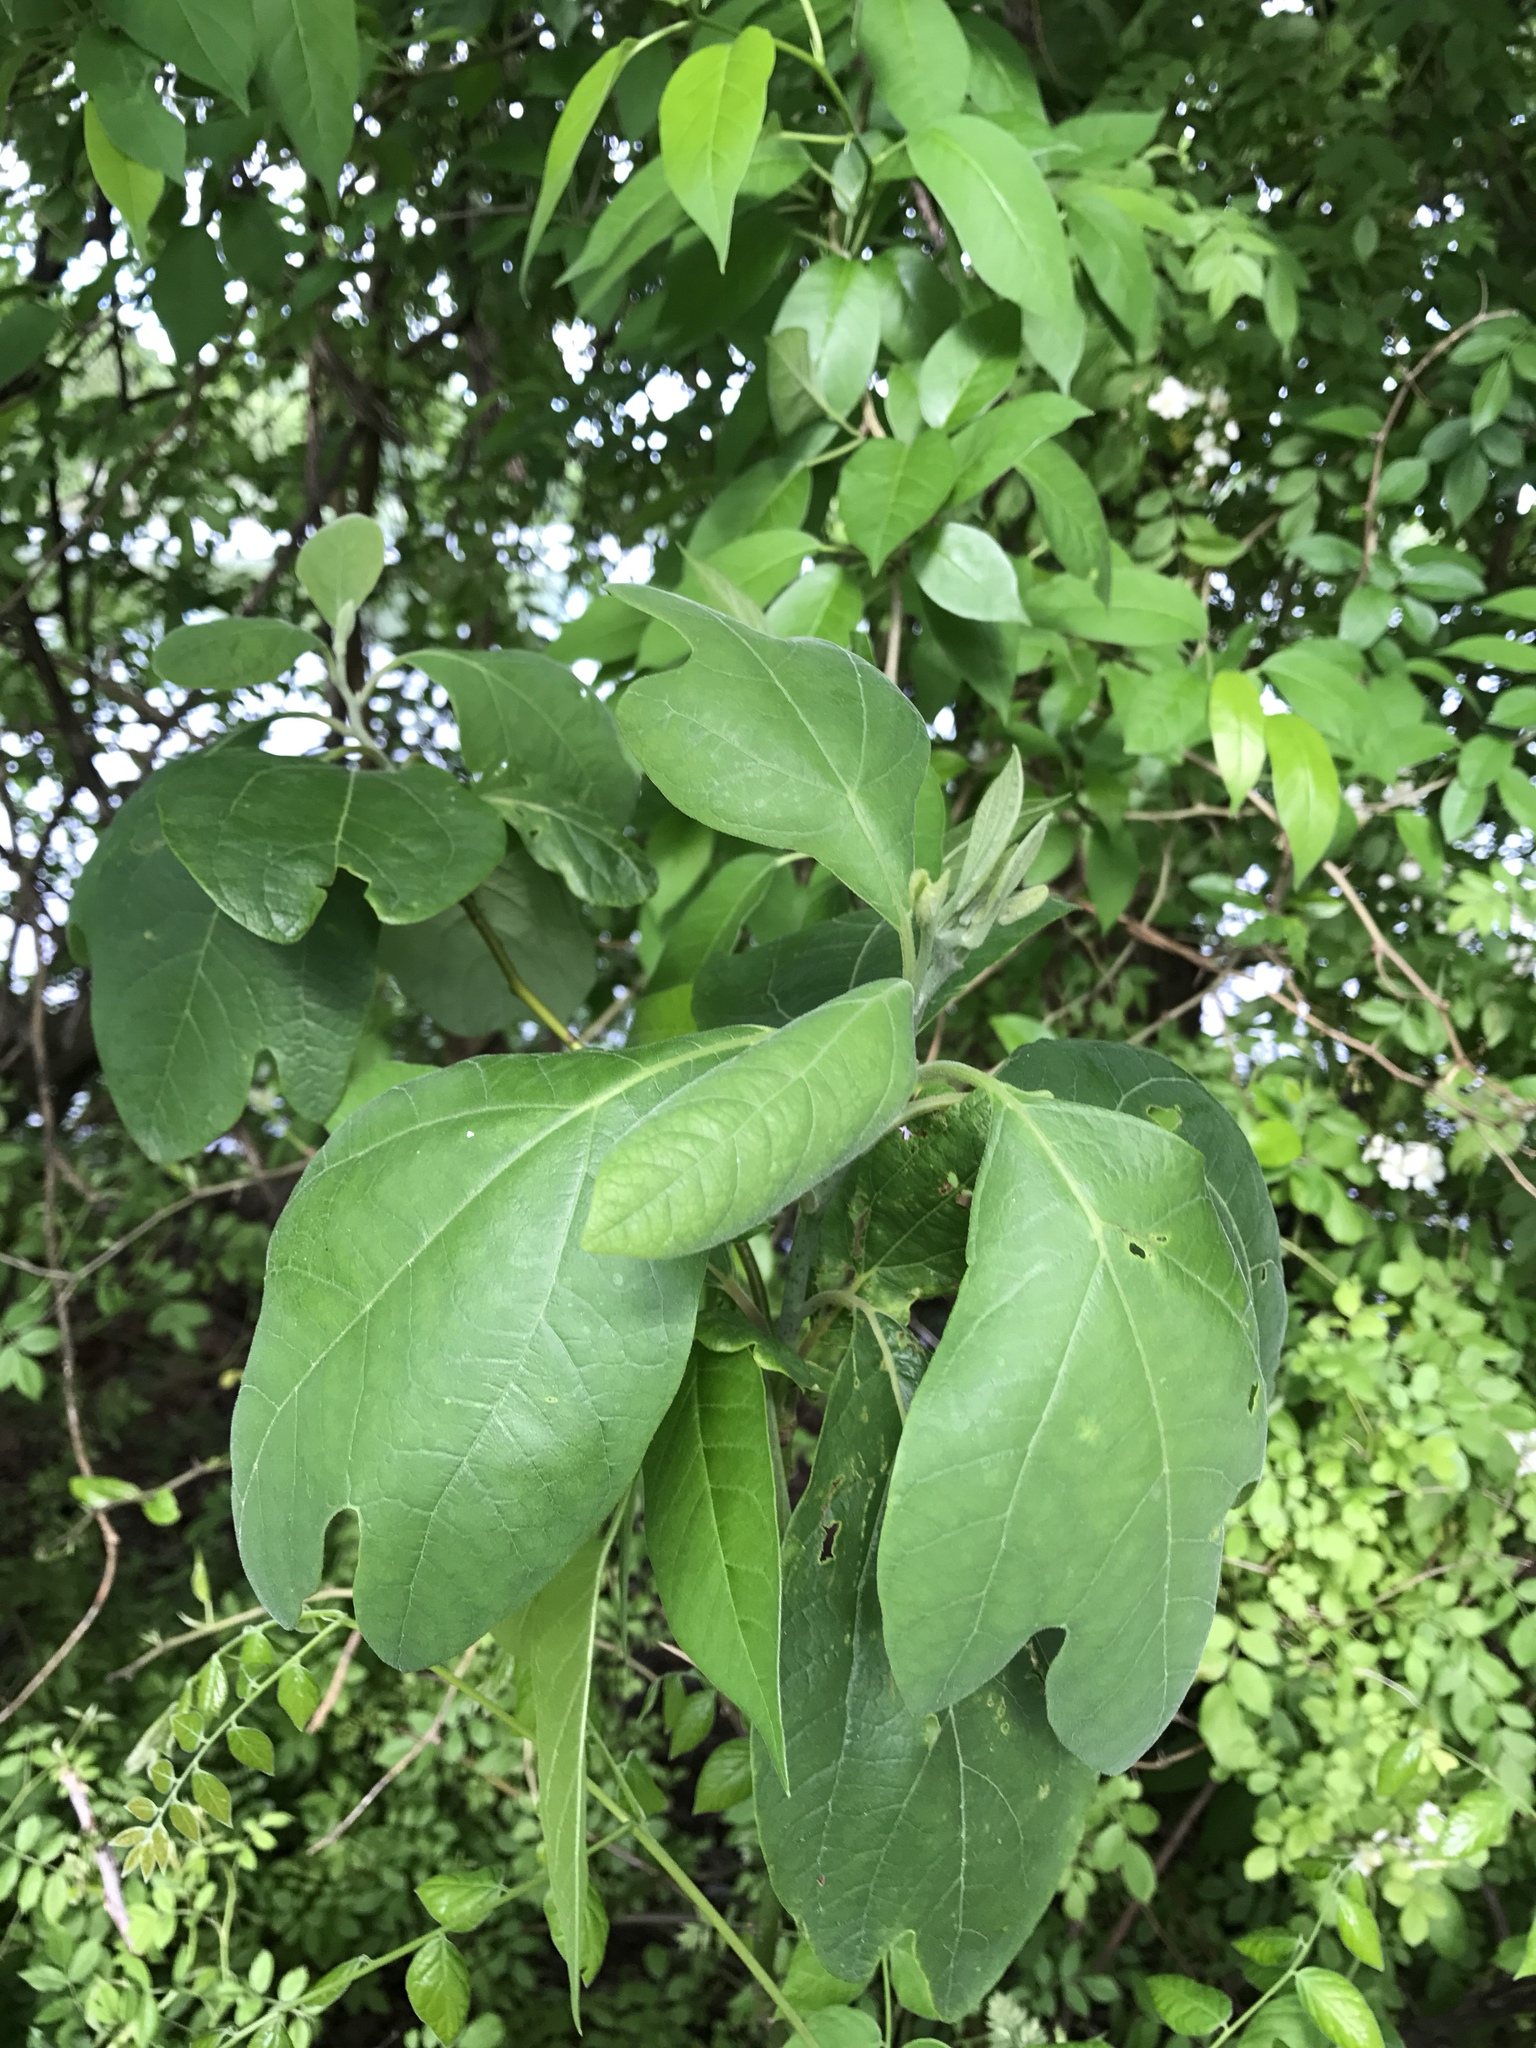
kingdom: Plantae
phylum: Tracheophyta
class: Magnoliopsida
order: Laurales
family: Lauraceae
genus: Sassafras
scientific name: Sassafras albidum
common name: Sassafras
